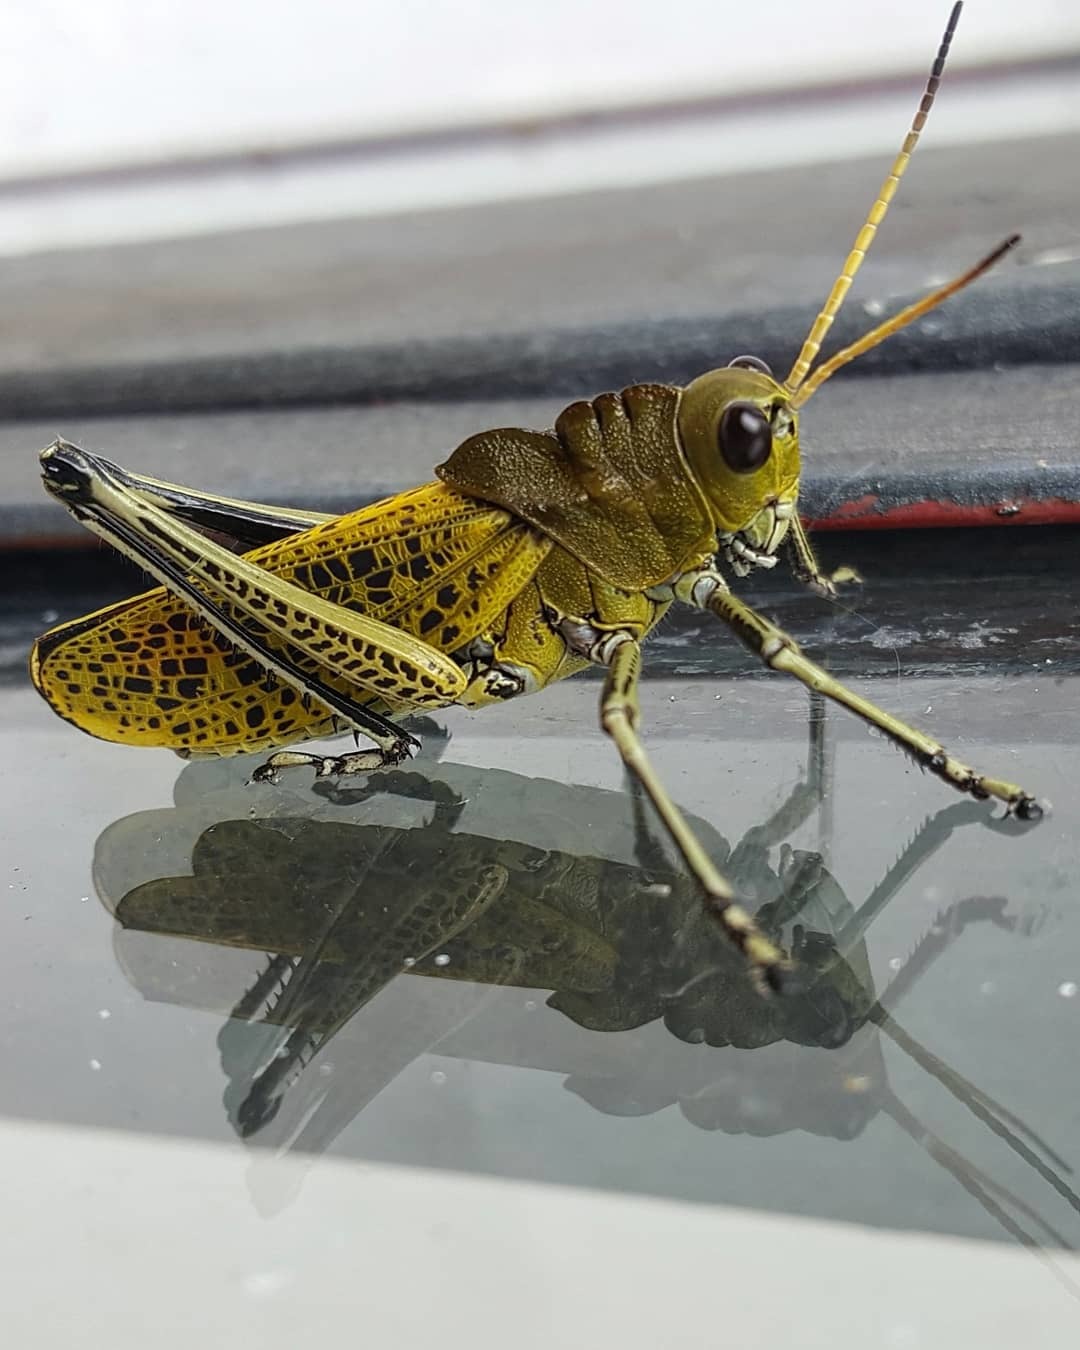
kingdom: Animalia
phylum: Arthropoda
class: Insecta
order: Orthoptera
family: Romaleidae
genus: Romalea
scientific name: Romalea
